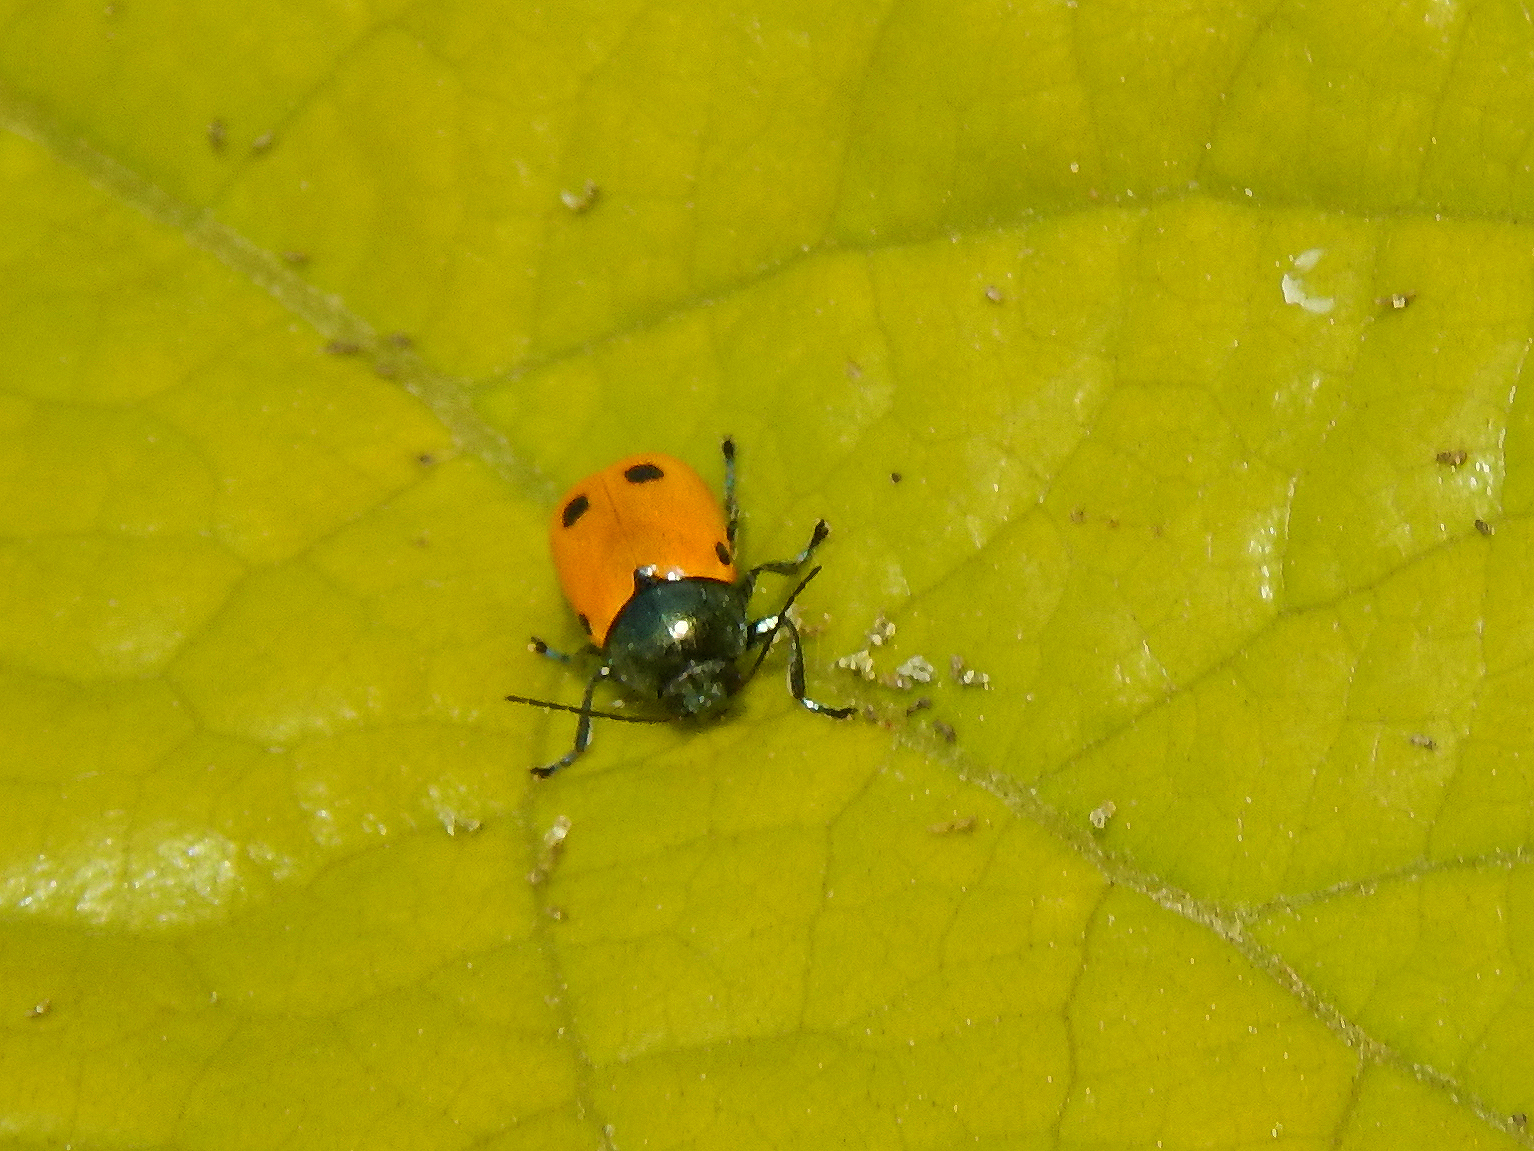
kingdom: Animalia
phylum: Arthropoda
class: Insecta
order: Coleoptera
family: Chrysomelidae
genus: Cryptocephalus
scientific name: Cryptocephalus ilicis
